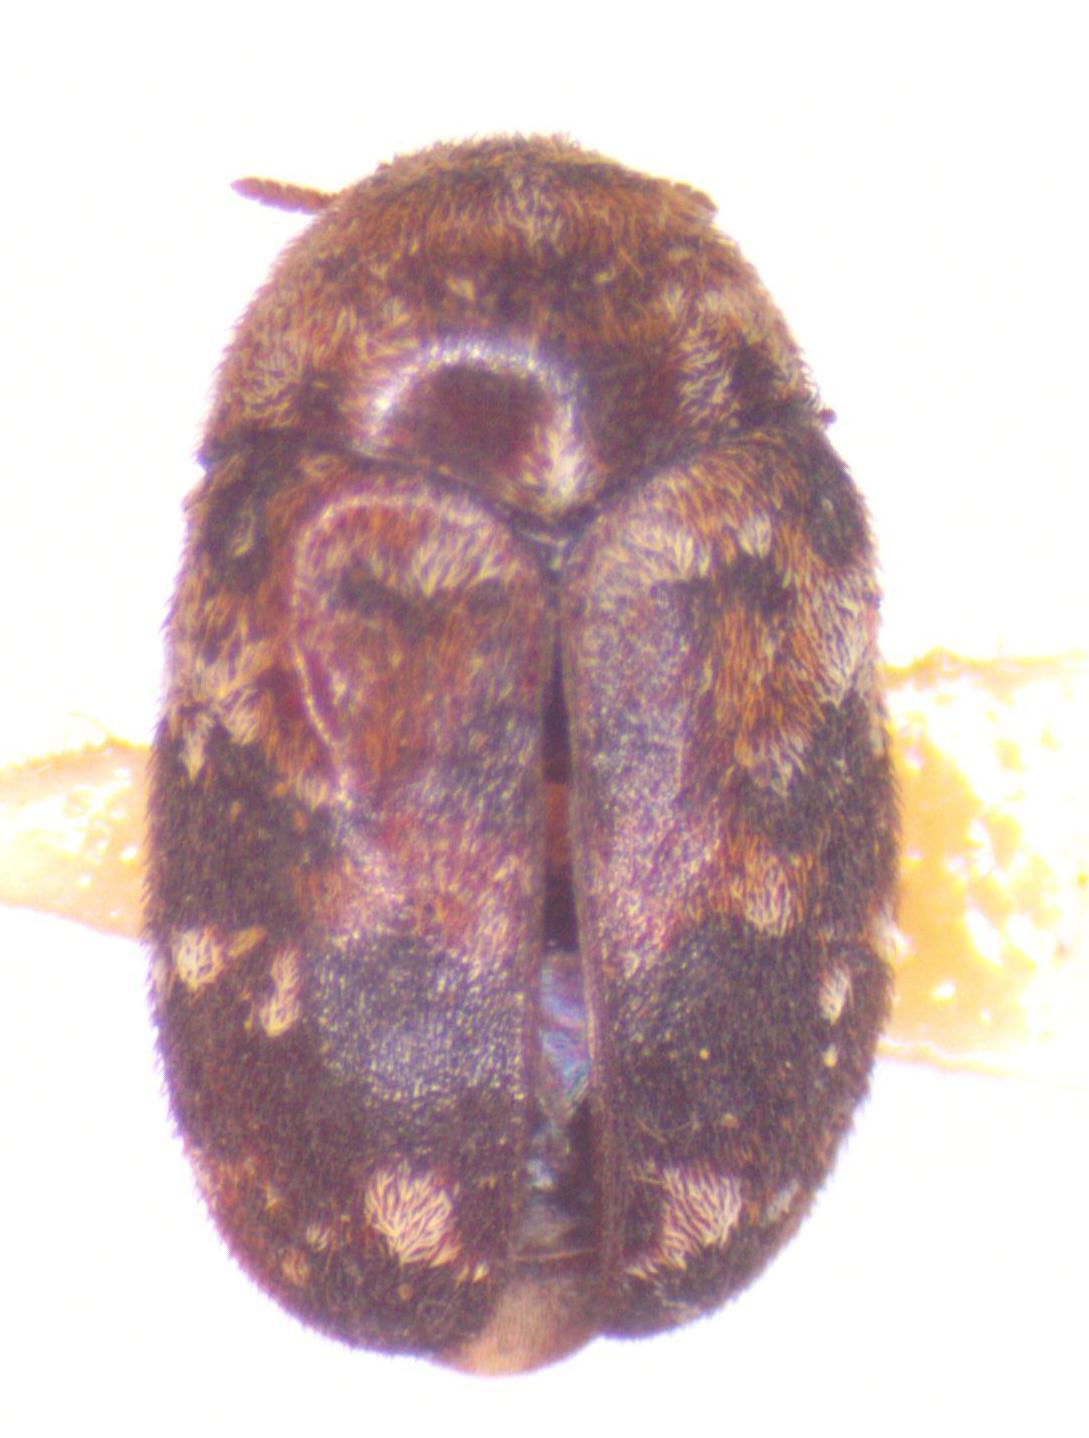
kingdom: Animalia
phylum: Arthropoda
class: Insecta
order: Coleoptera
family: Dermestidae
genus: Trogoderma
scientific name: Trogoderma
